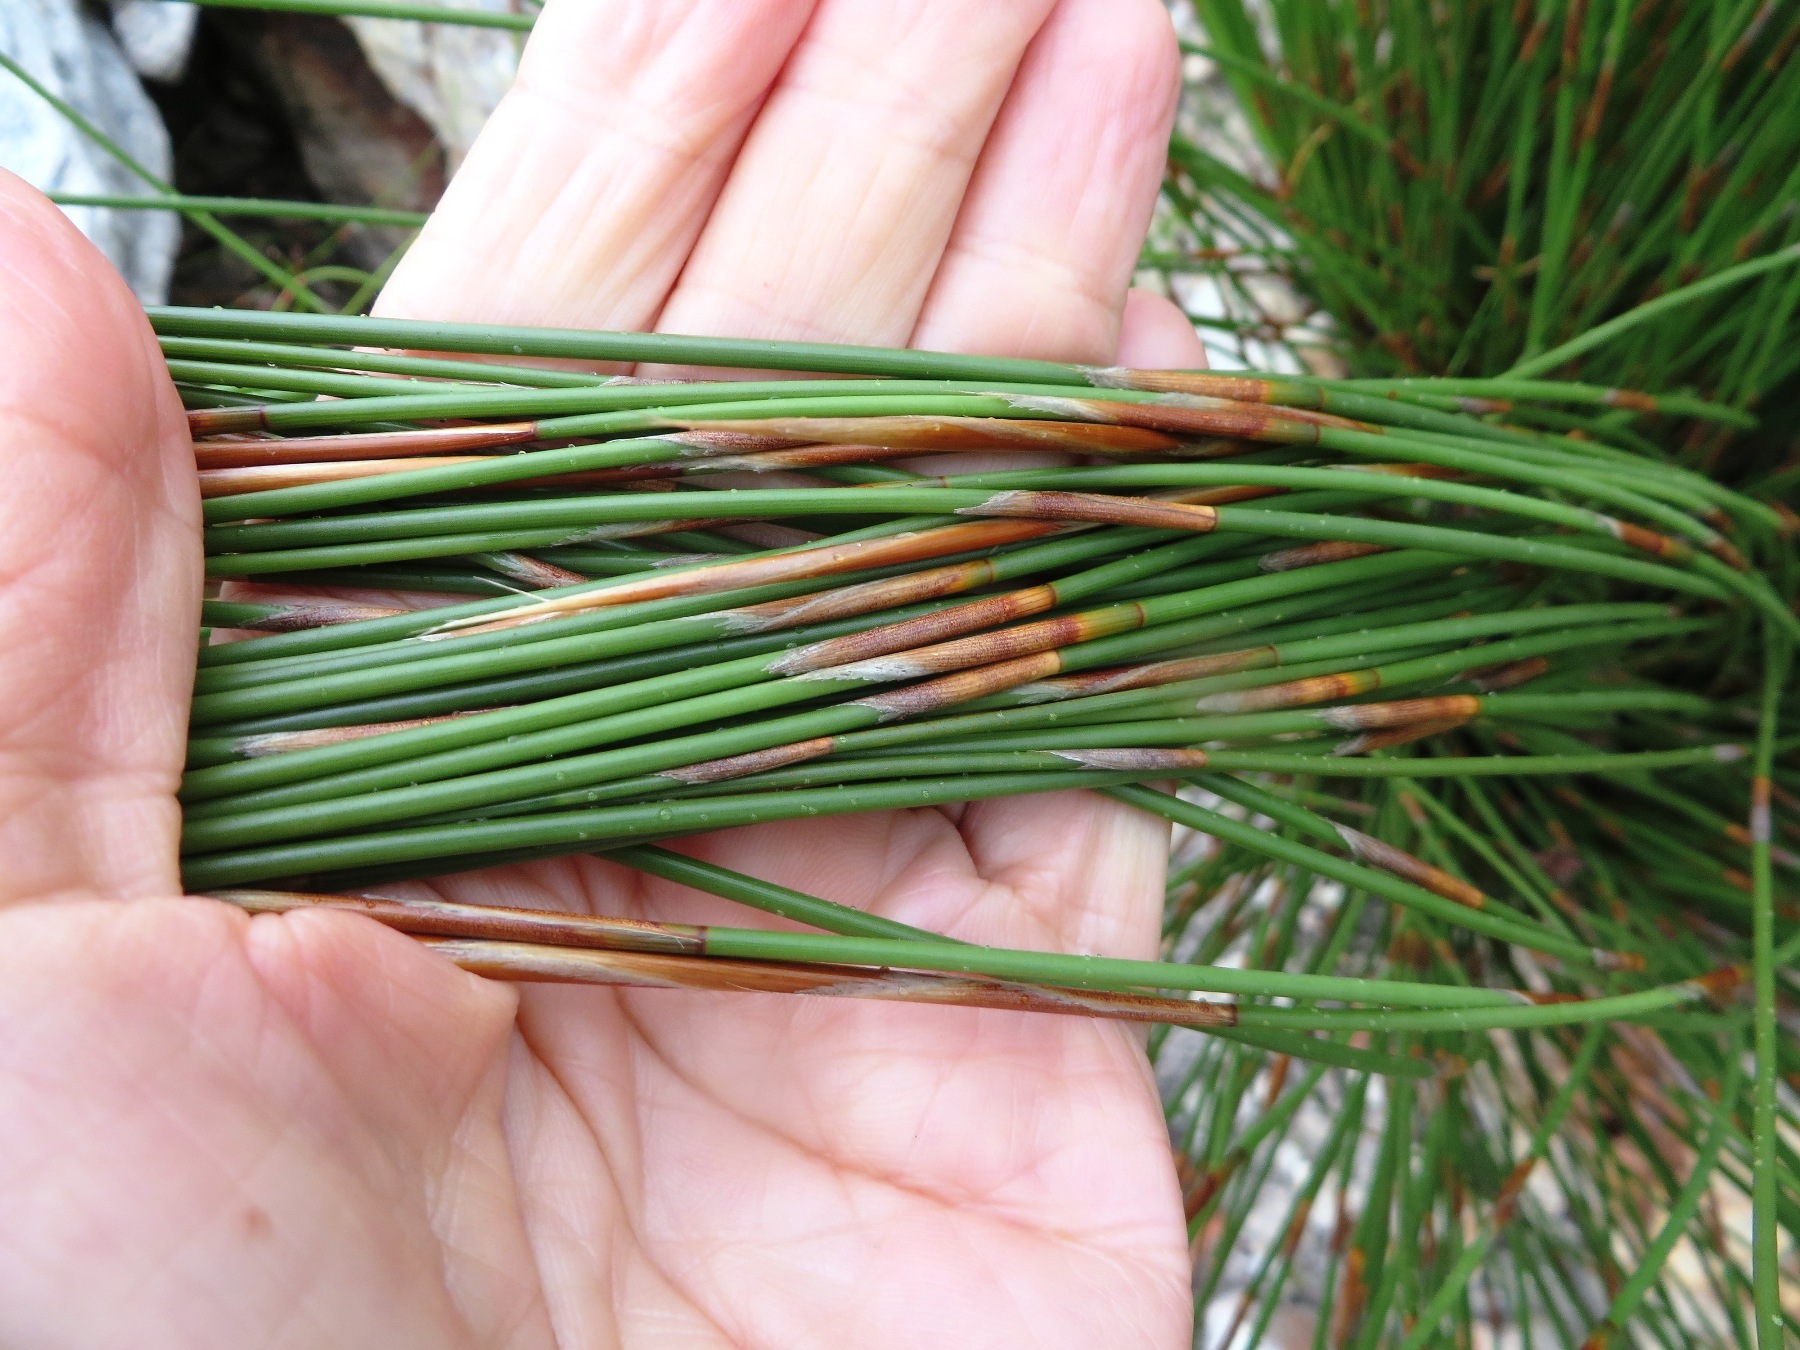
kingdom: Plantae
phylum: Tracheophyta
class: Liliopsida
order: Poales
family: Restionaceae
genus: Hypodiscus
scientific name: Hypodiscus argenteus
